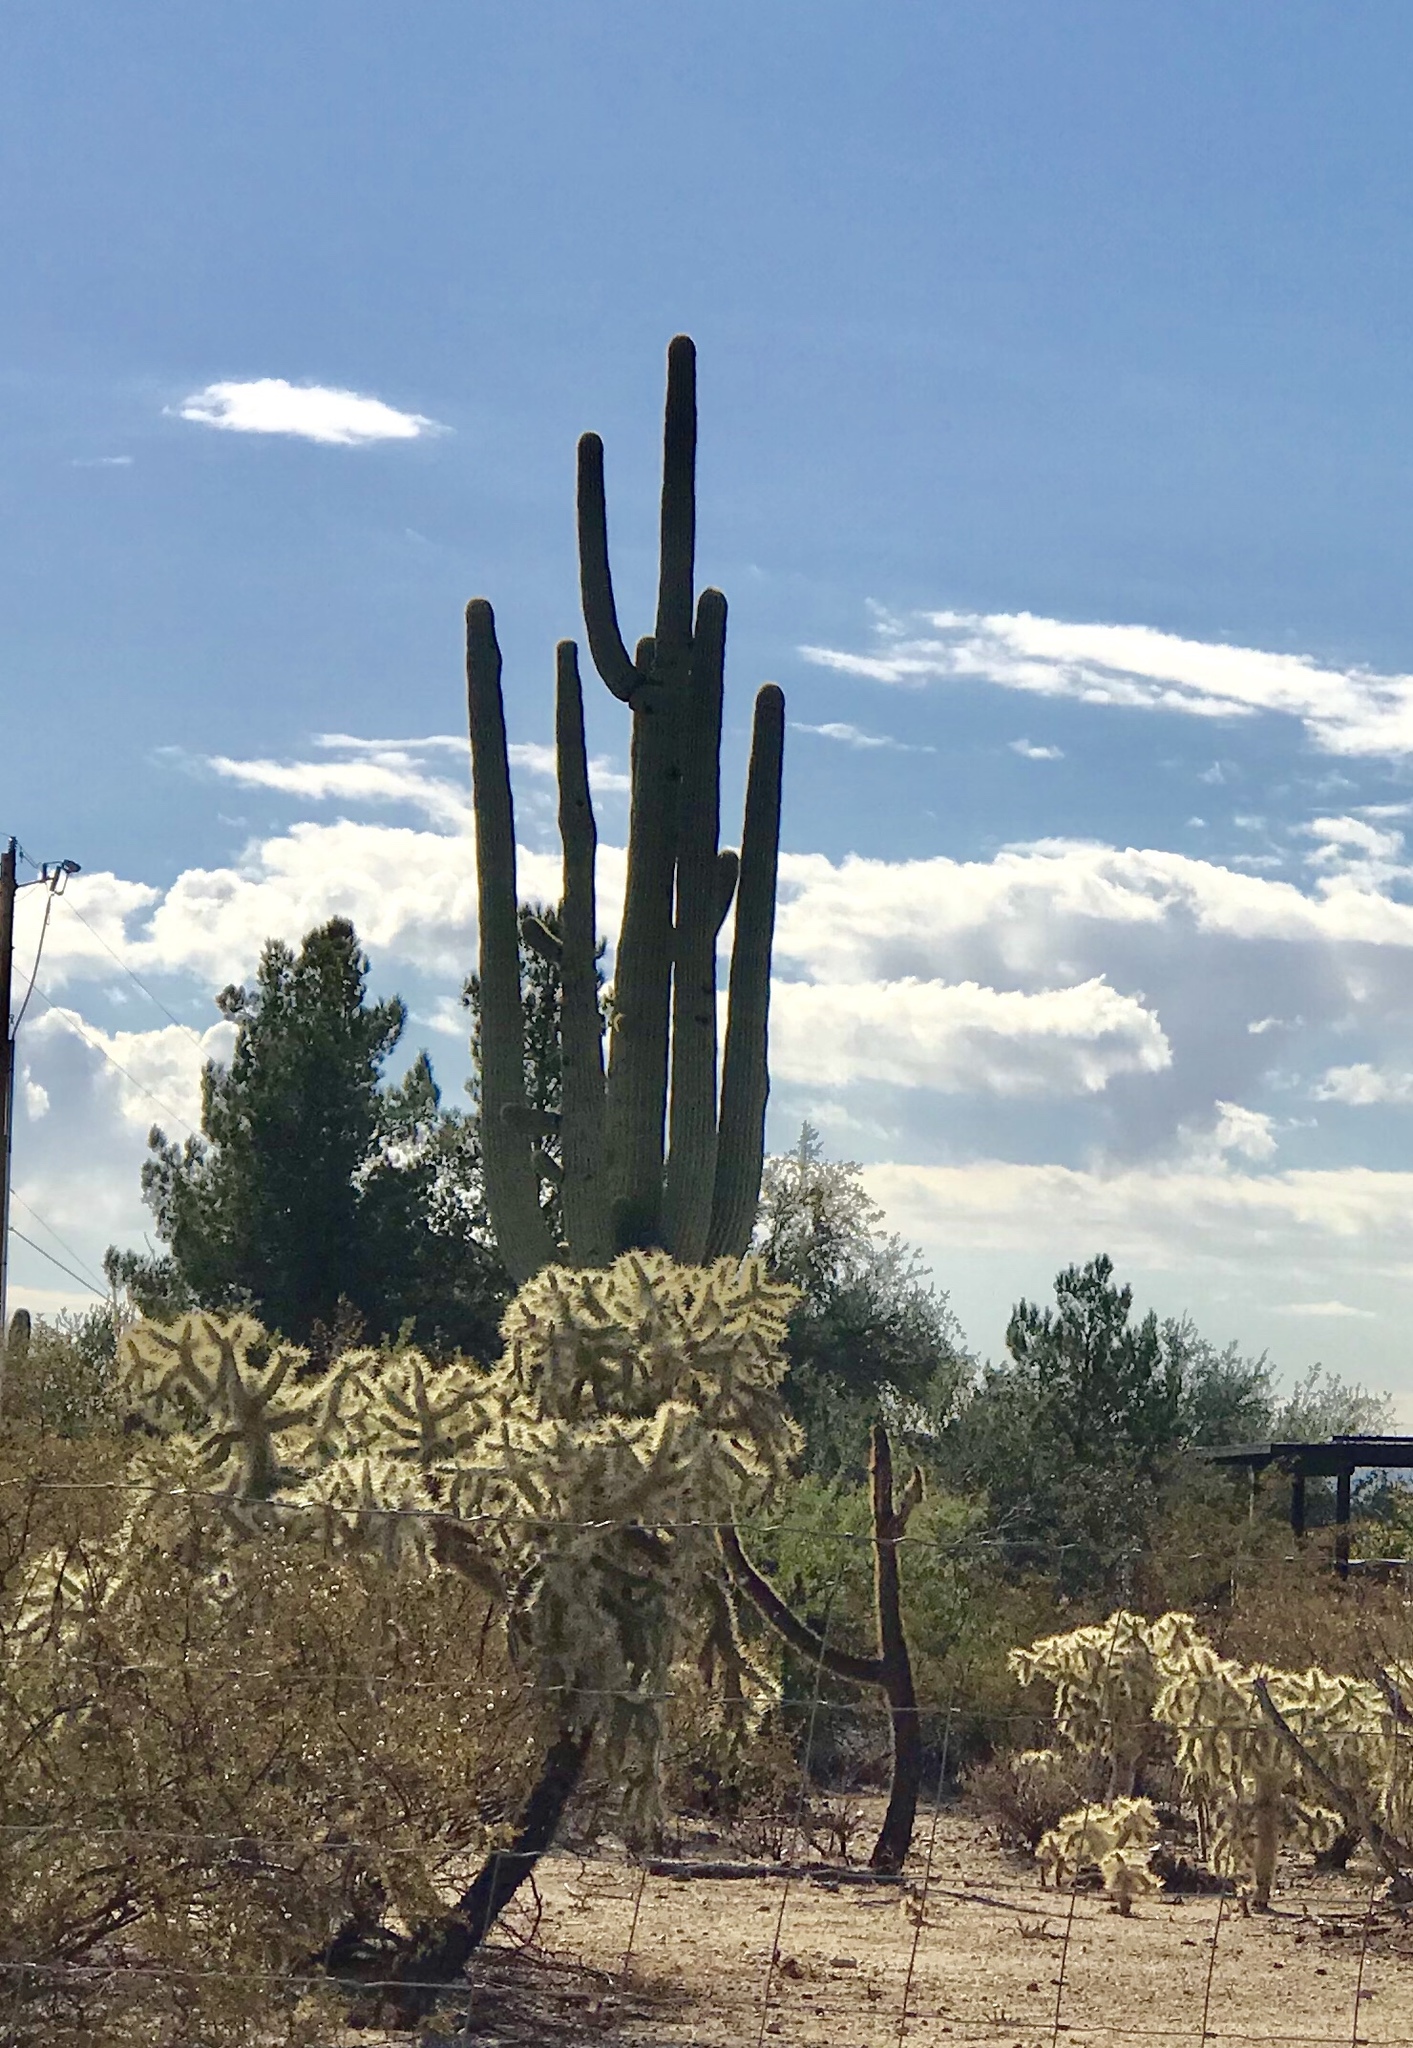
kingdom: Plantae
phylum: Tracheophyta
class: Magnoliopsida
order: Caryophyllales
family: Cactaceae
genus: Carnegiea
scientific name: Carnegiea gigantea
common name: Saguaro
